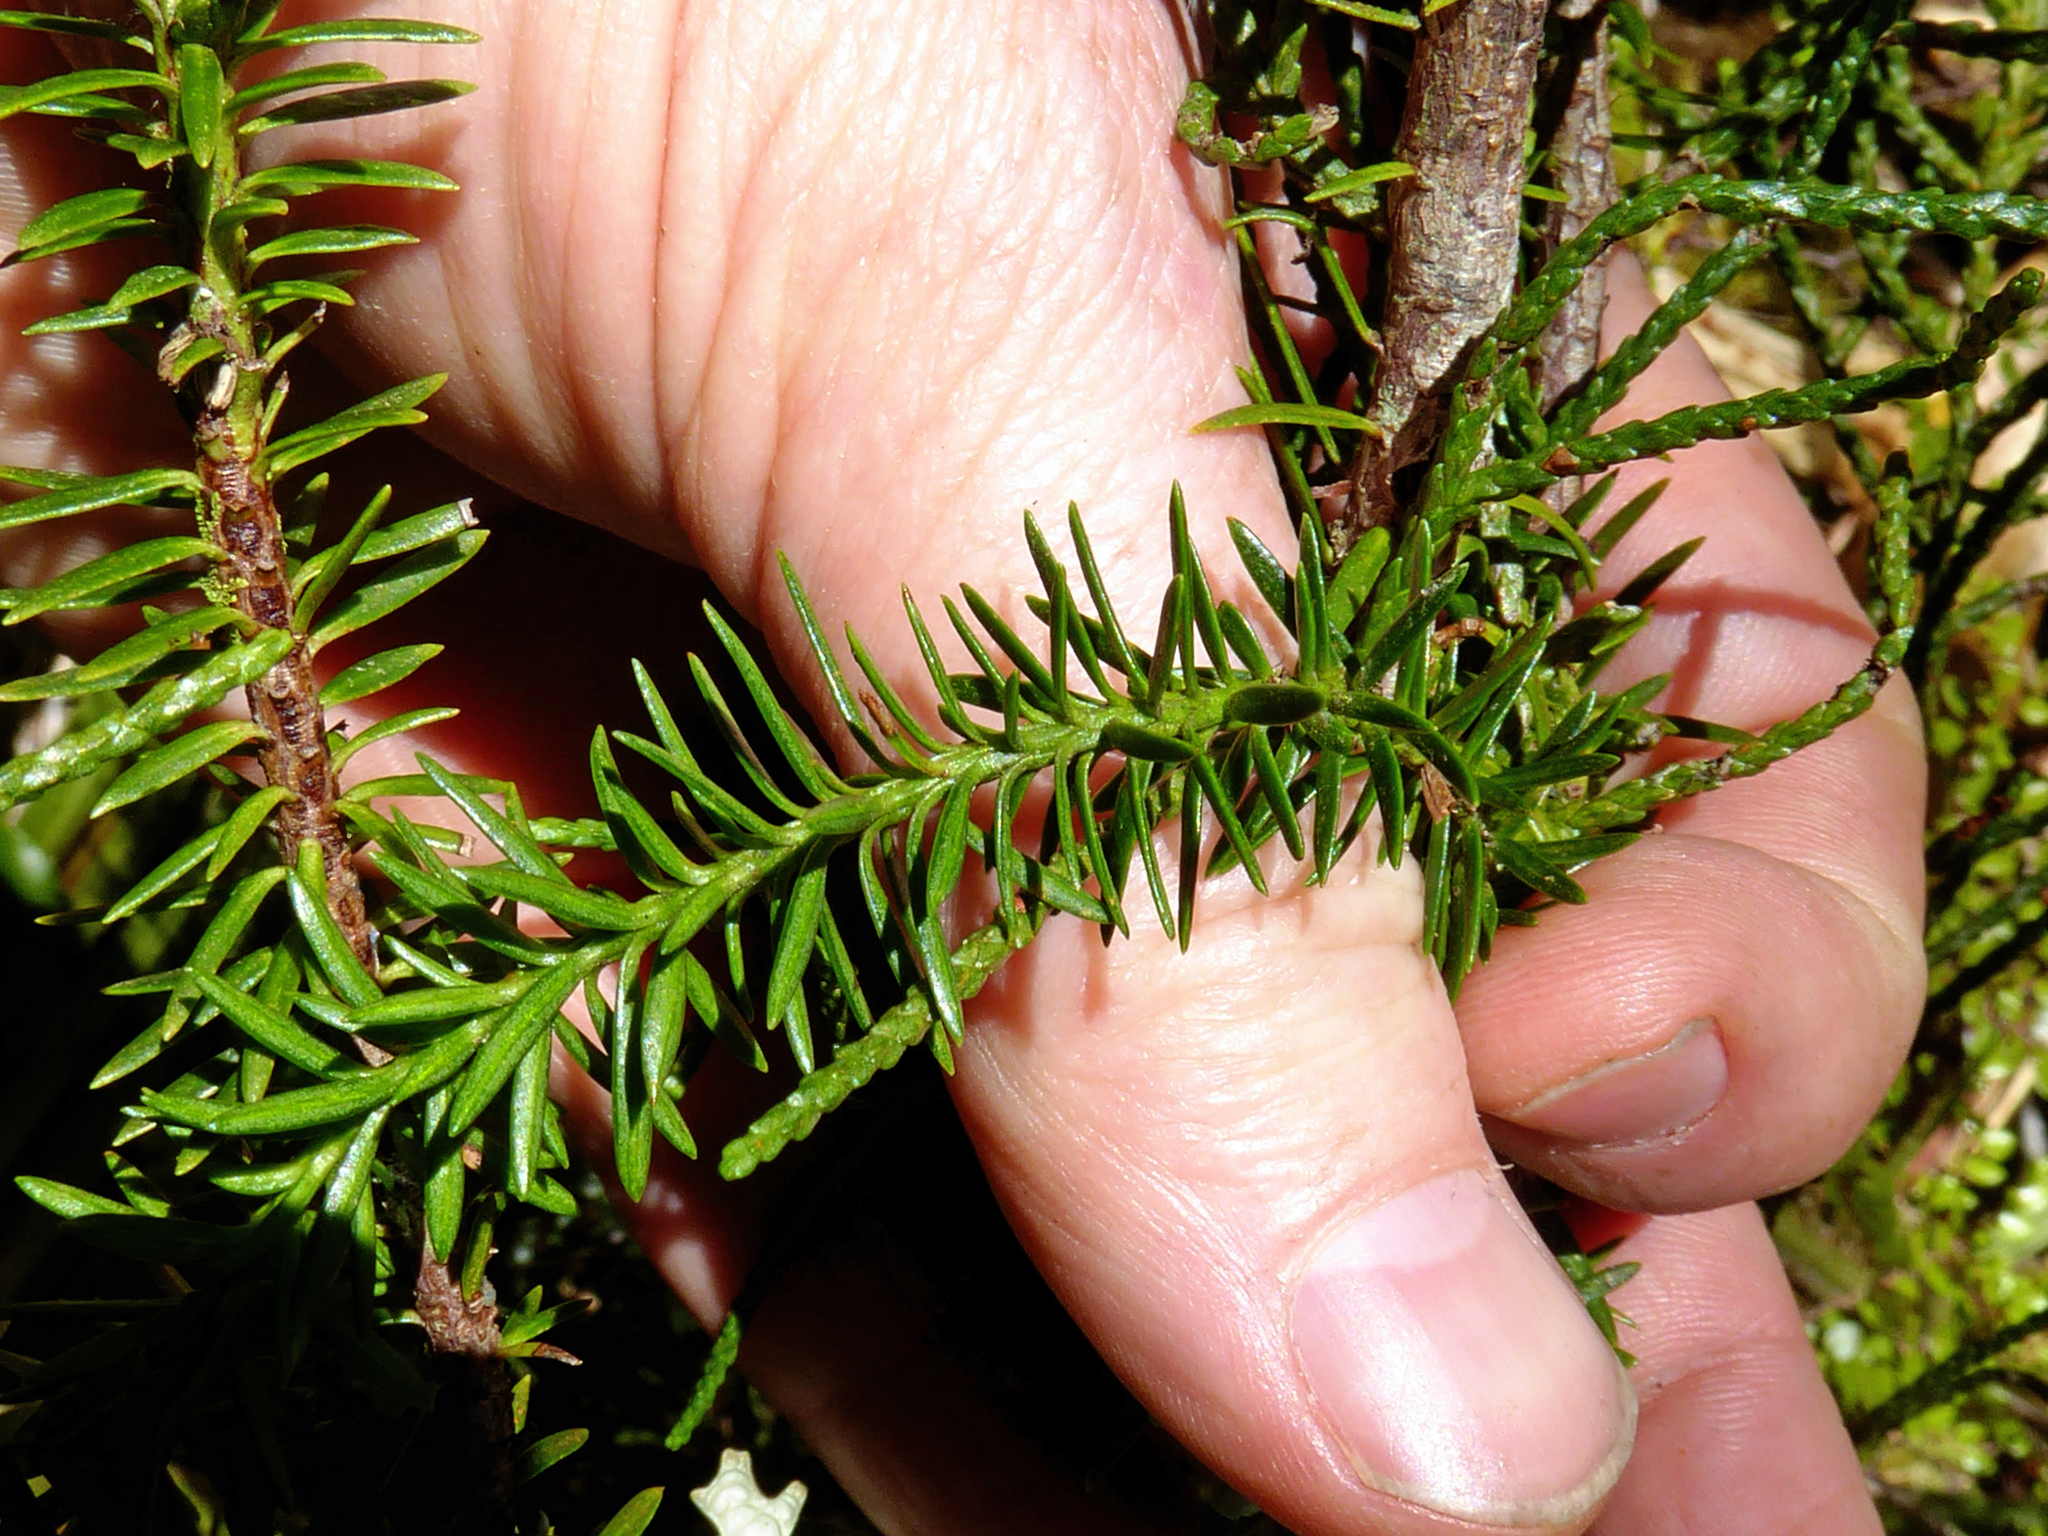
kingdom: Plantae
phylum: Tracheophyta
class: Pinopsida
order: Pinales
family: Podocarpaceae
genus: Halocarpus
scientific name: Halocarpus biformis
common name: Alpine tarwood
